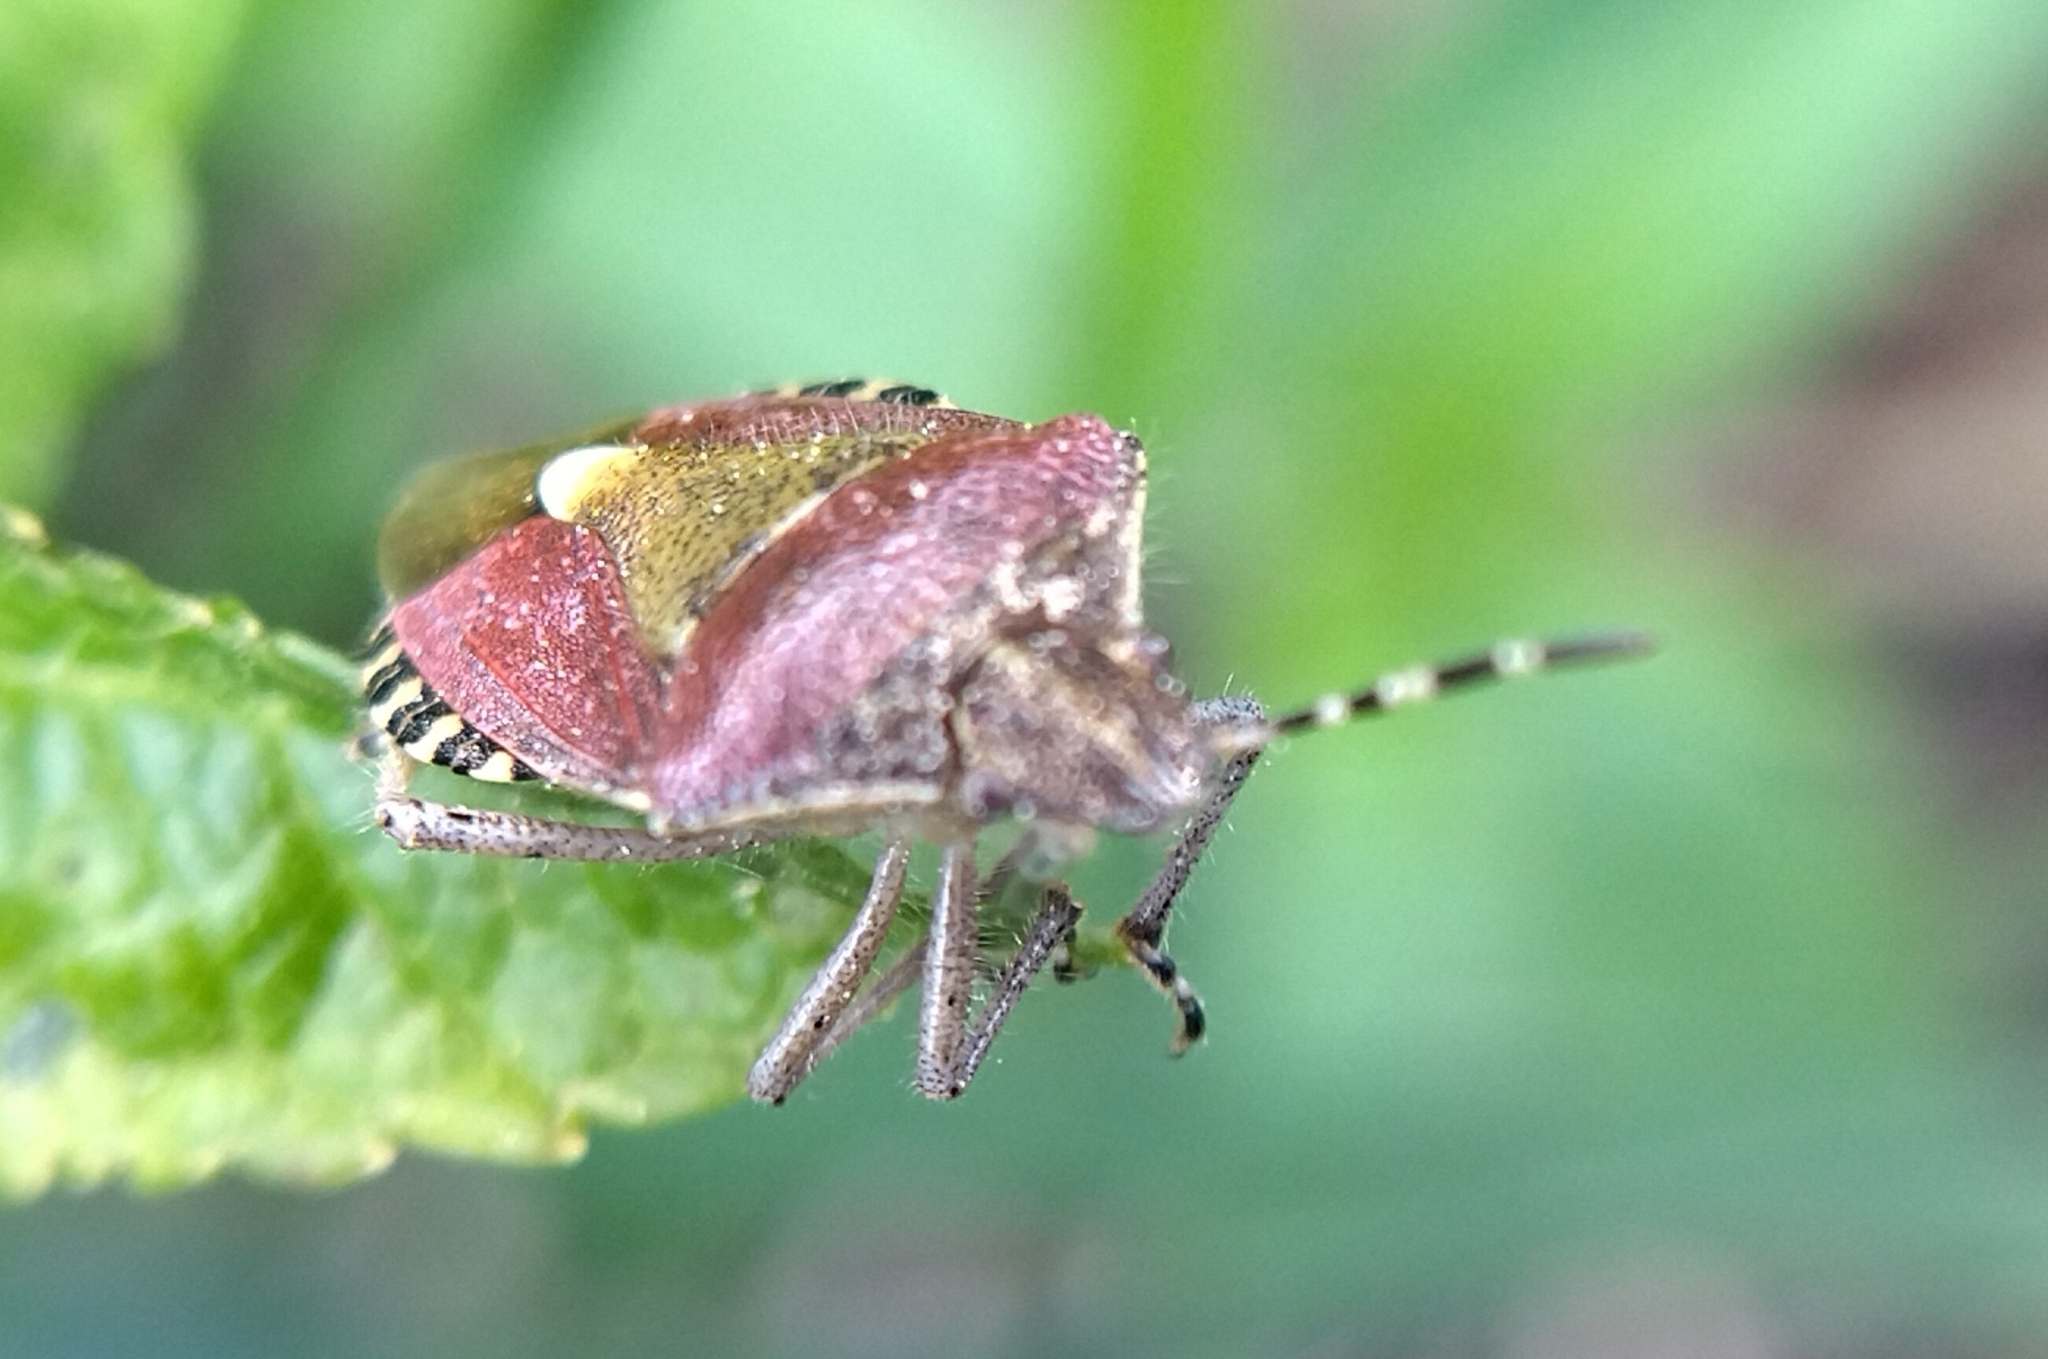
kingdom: Animalia
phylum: Arthropoda
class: Insecta
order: Hemiptera
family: Pentatomidae
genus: Dolycoris
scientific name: Dolycoris baccarum
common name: Sloe bug
